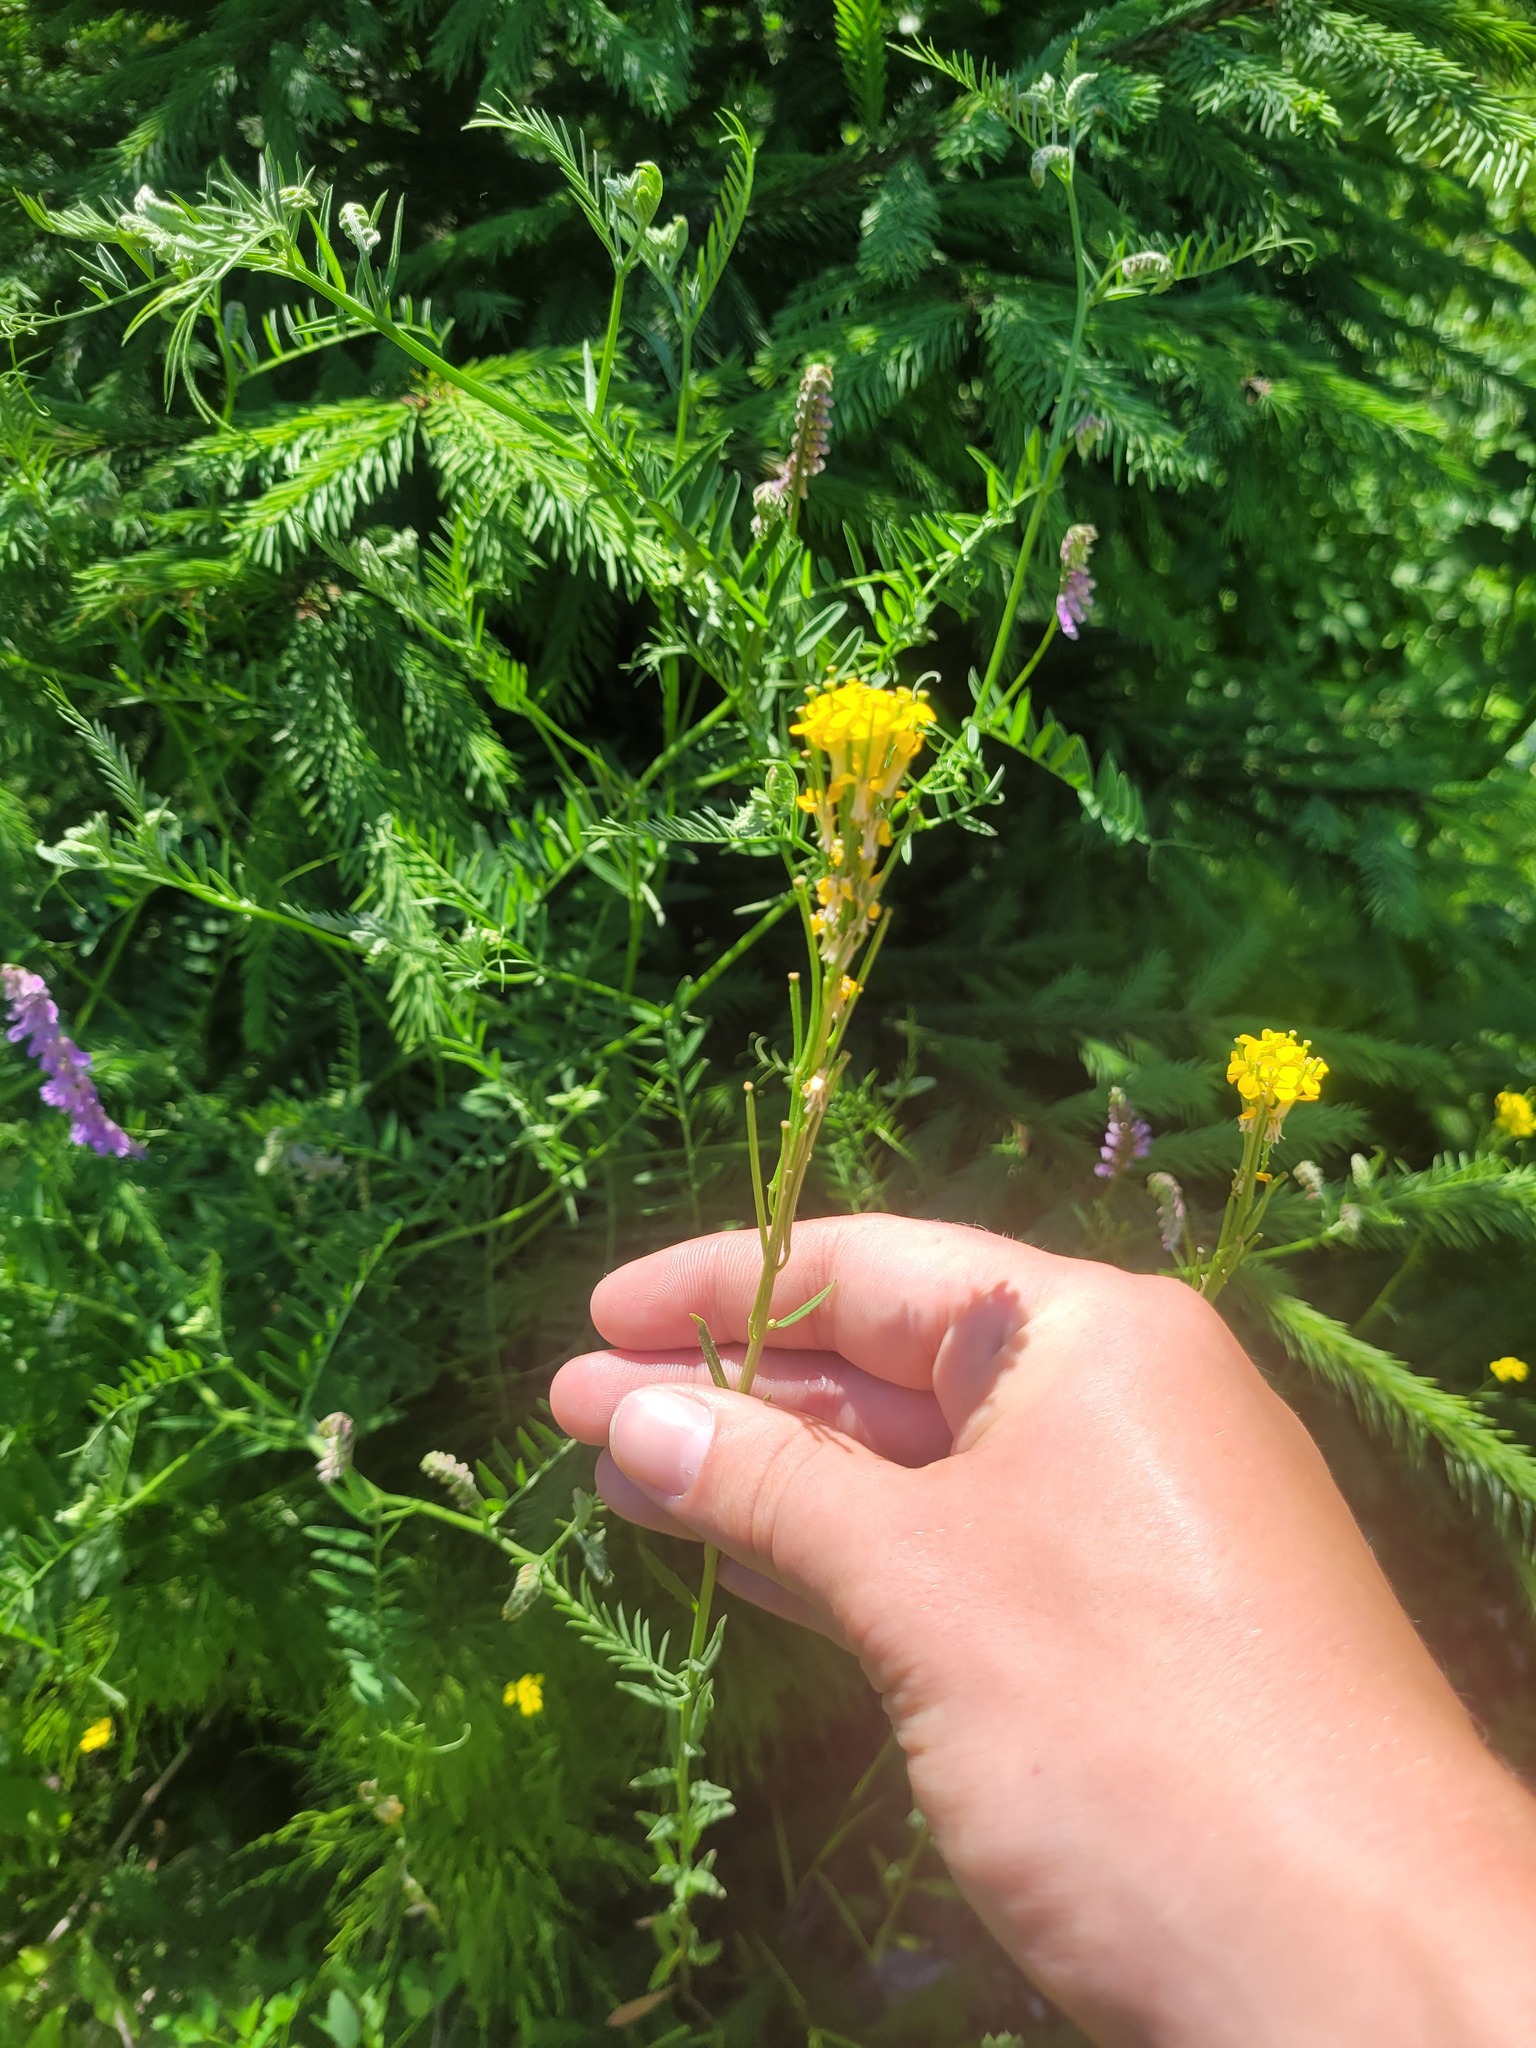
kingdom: Plantae
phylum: Tracheophyta
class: Magnoliopsida
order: Brassicales
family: Brassicaceae
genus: Erysimum
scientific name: Erysimum hieraciifolium
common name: European wallflower
